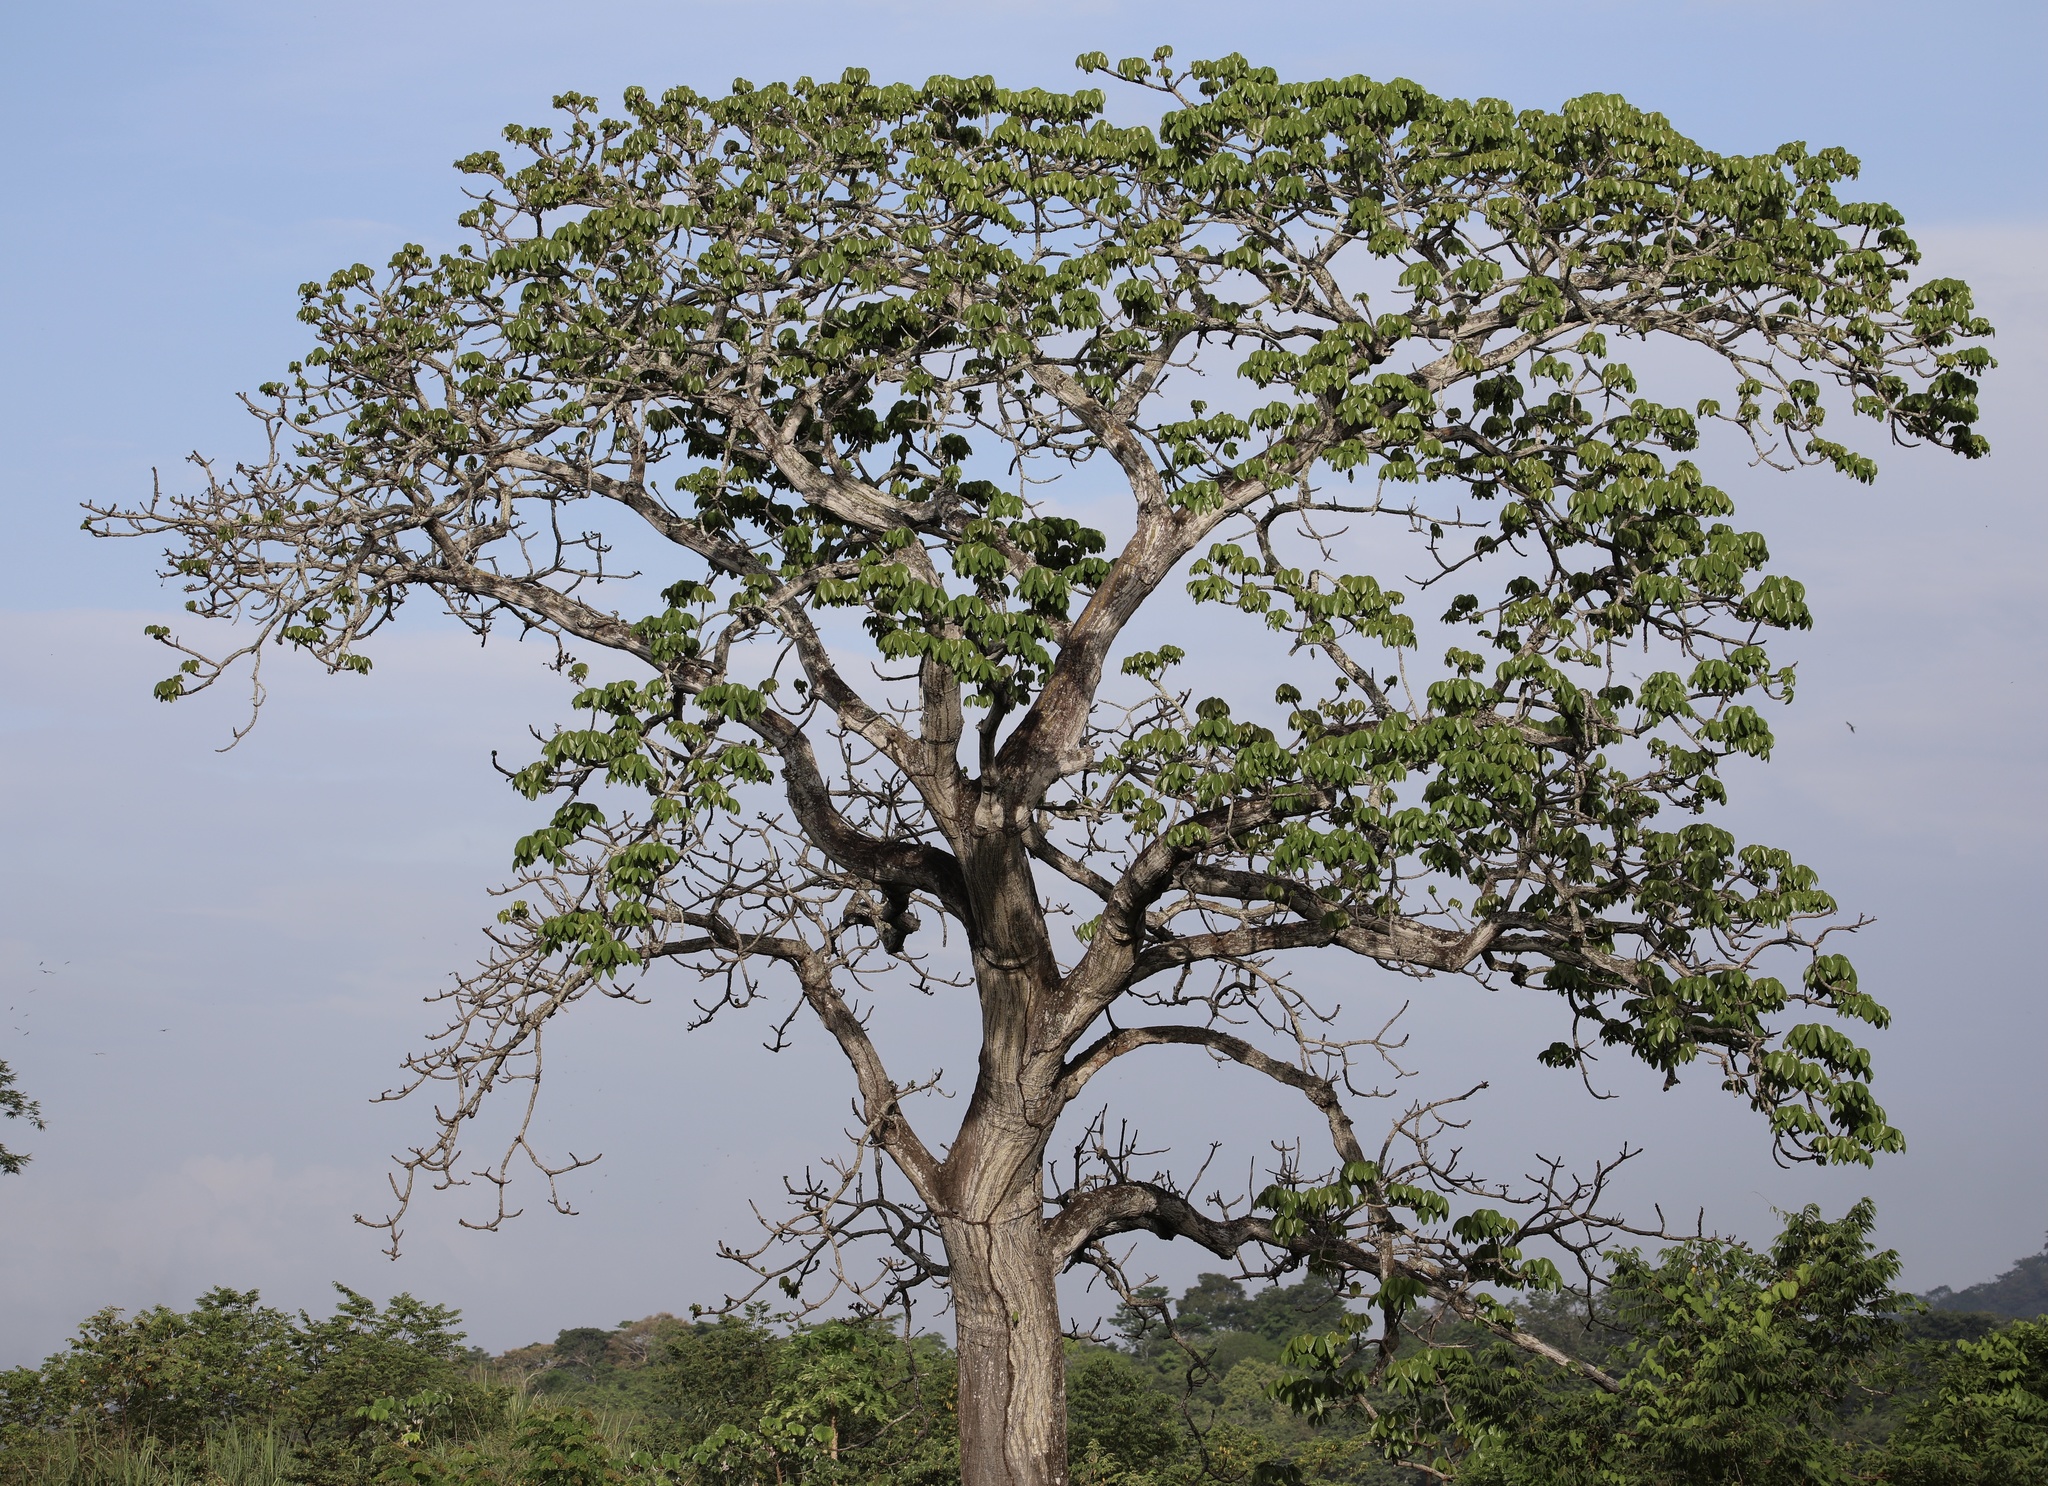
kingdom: Plantae
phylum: Tracheophyta
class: Magnoliopsida
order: Malvales
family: Malvaceae
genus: Pseudobombax
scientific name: Pseudobombax septenatum
